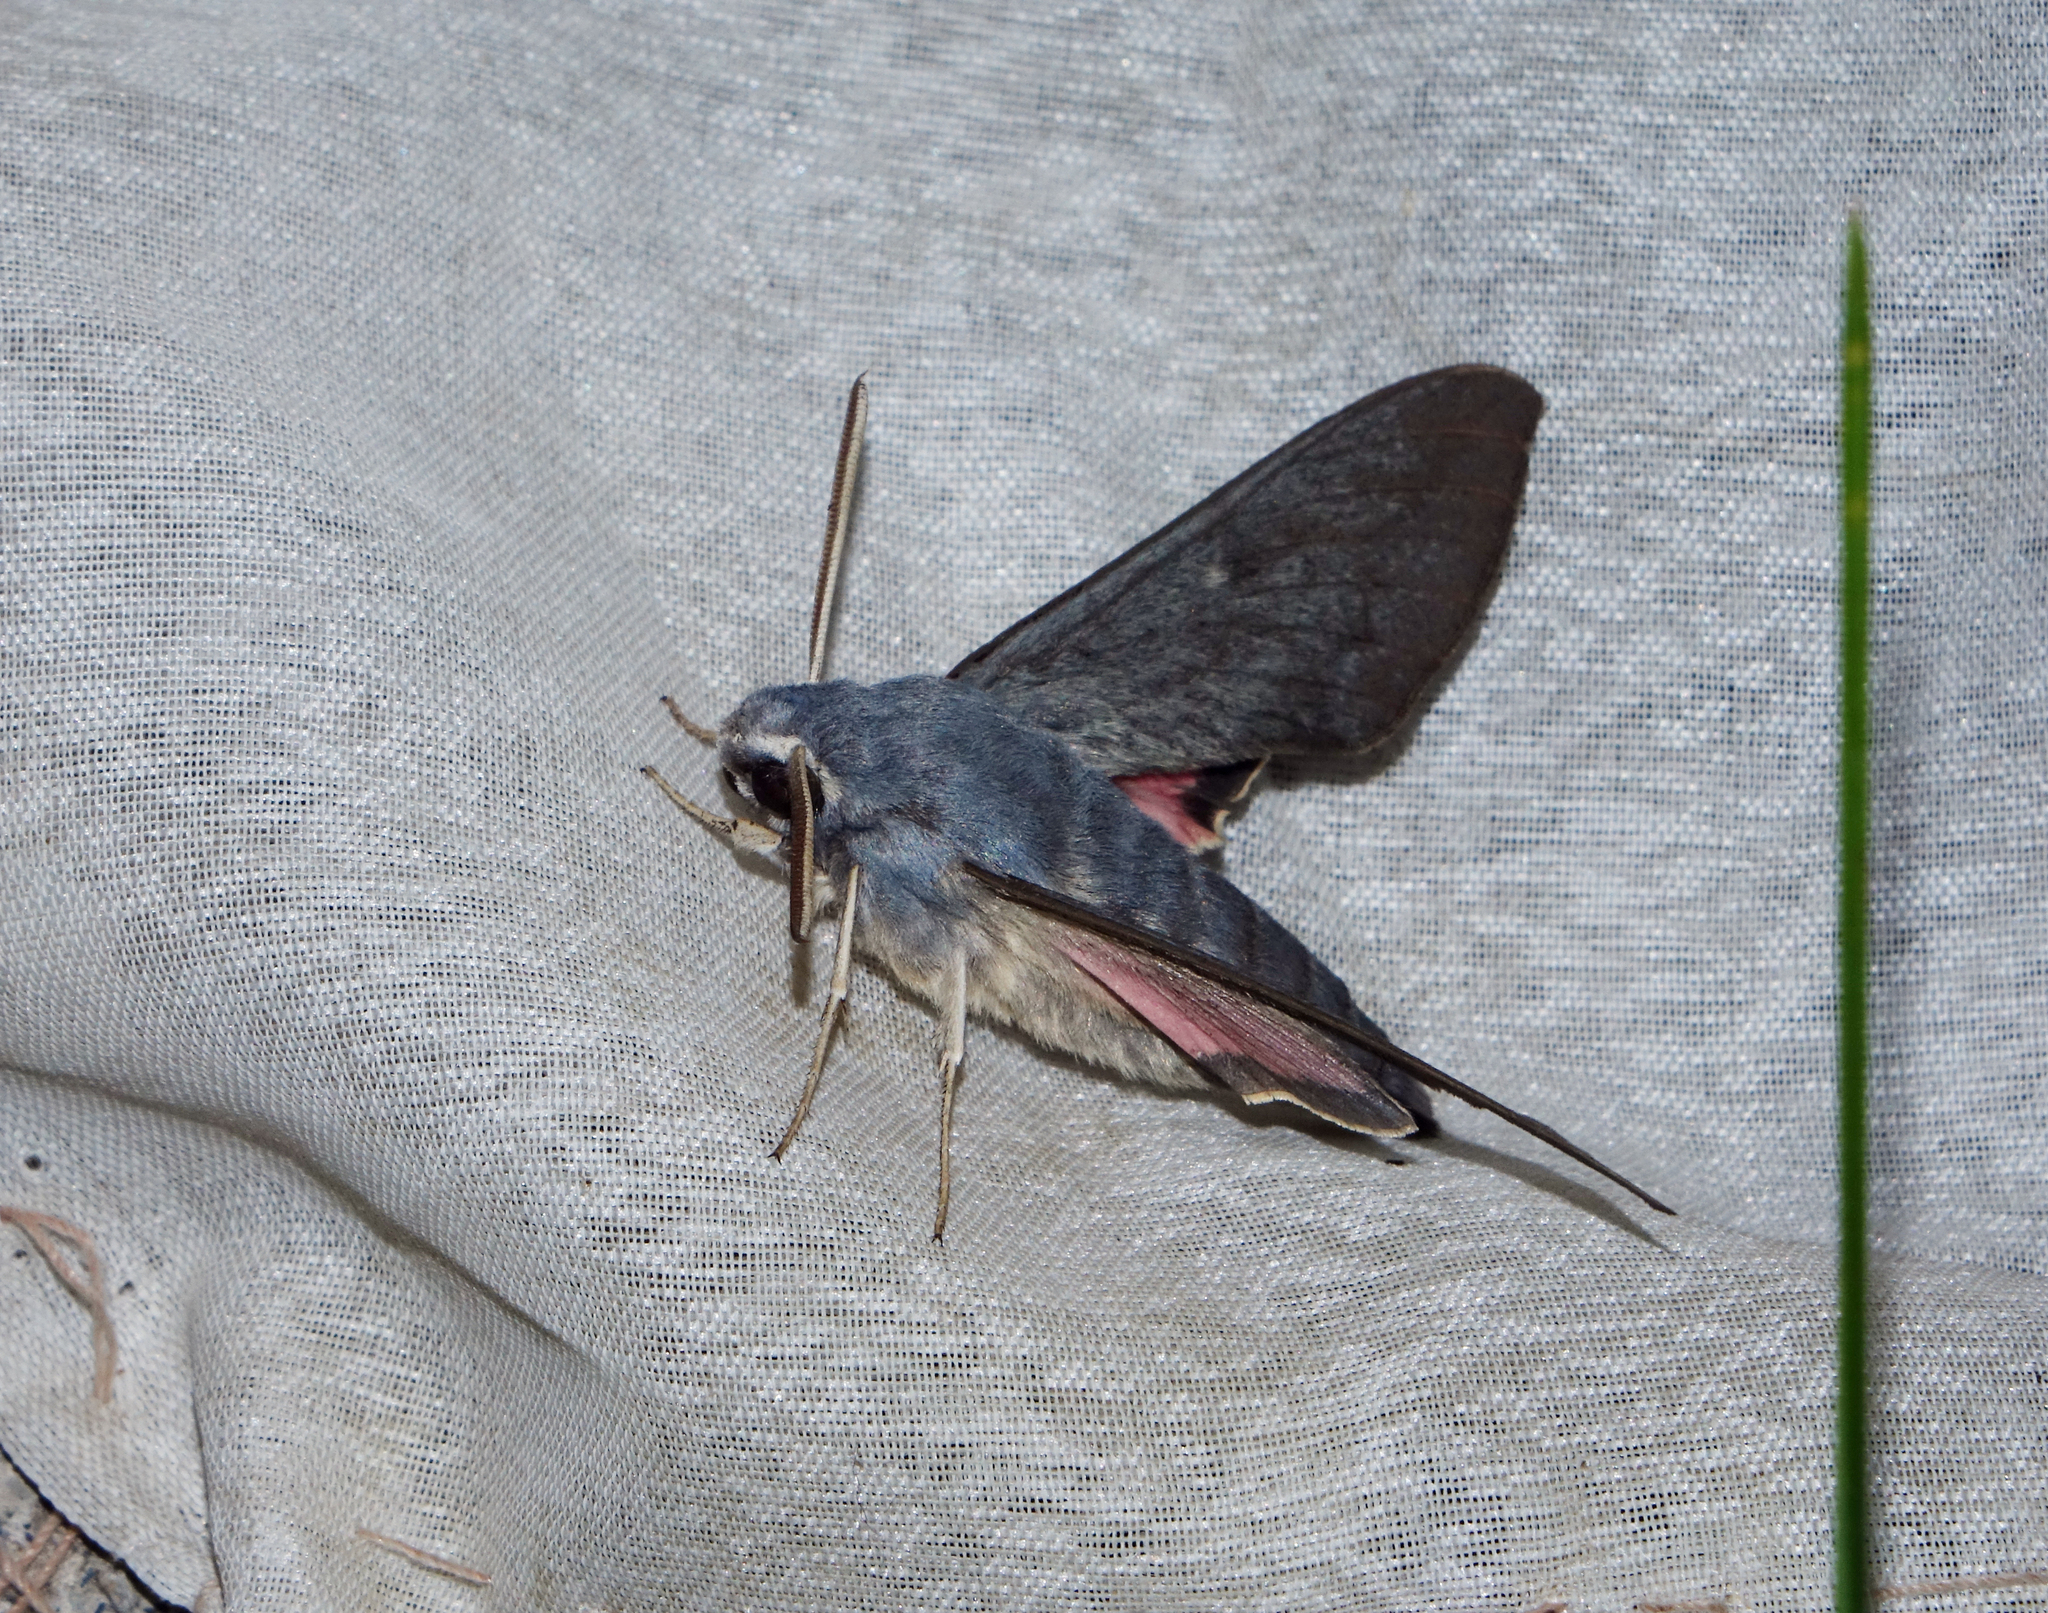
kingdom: Animalia
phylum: Arthropoda
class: Insecta
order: Lepidoptera
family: Sphingidae
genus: Hyles
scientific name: Hyles vespertilio
